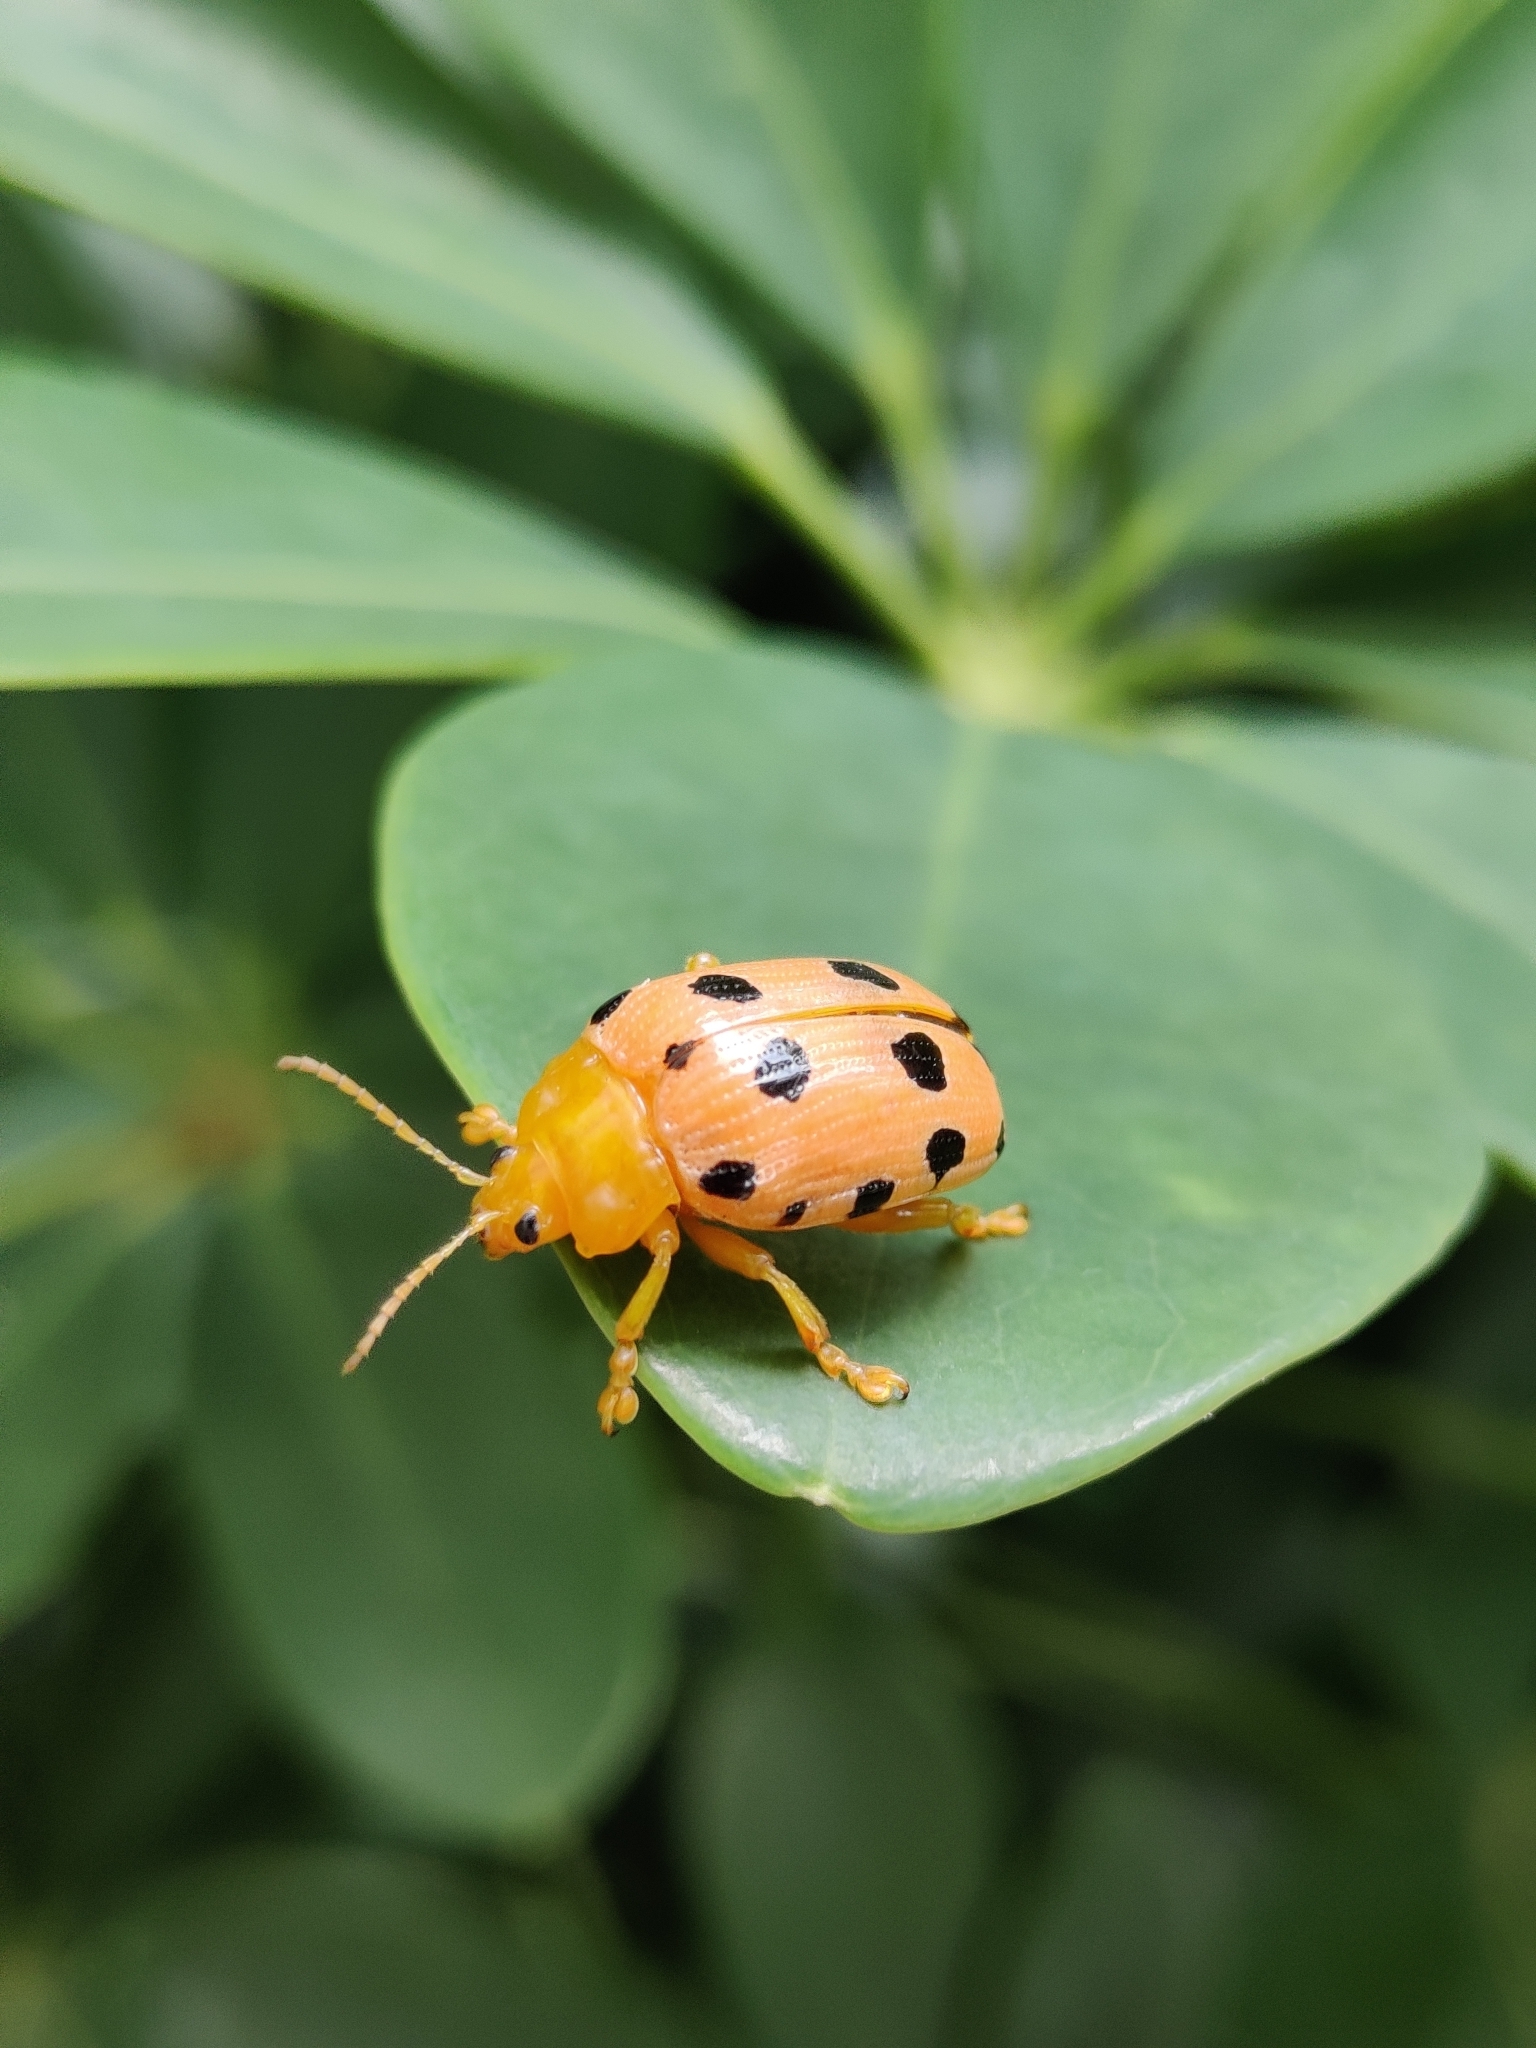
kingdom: Animalia
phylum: Arthropoda
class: Insecta
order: Coleoptera
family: Chrysomelidae
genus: Podontia
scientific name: Podontia
